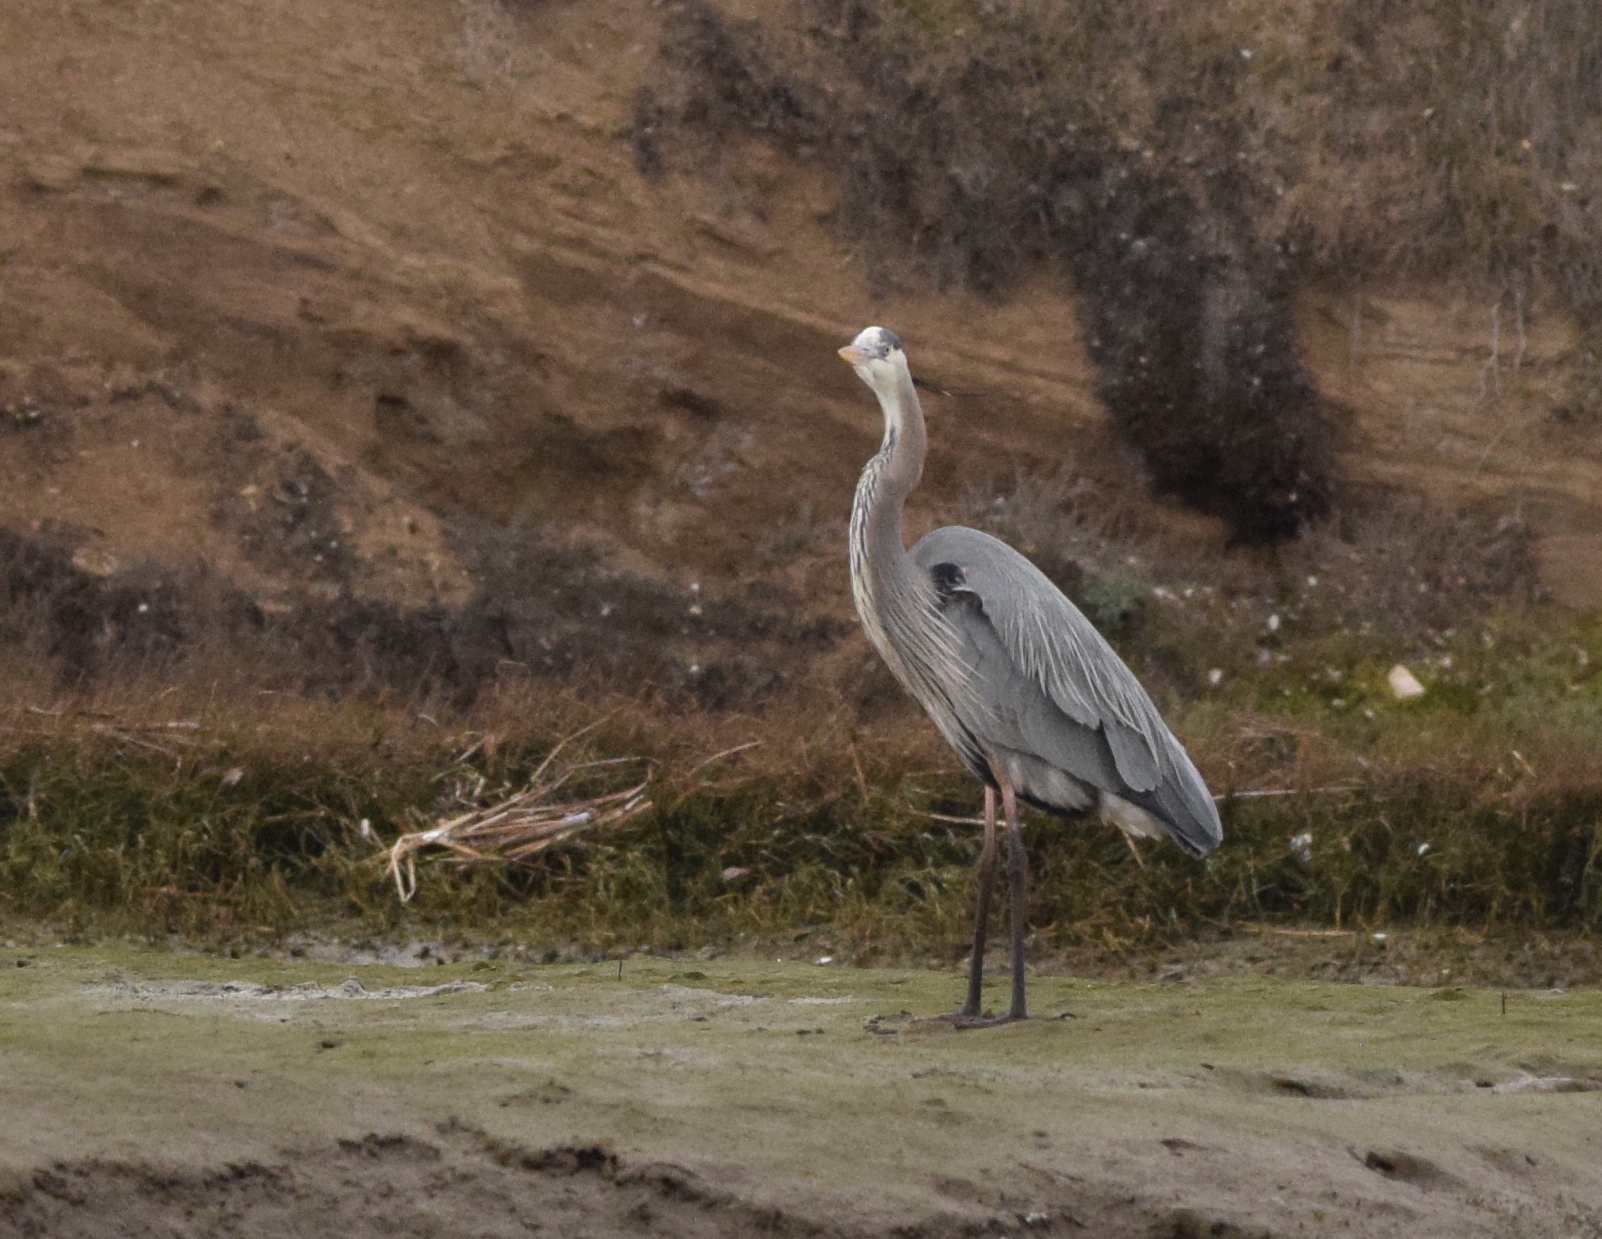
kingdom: Animalia
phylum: Chordata
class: Aves
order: Pelecaniformes
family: Ardeidae
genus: Ardea
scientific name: Ardea herodias
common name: Great blue heron
